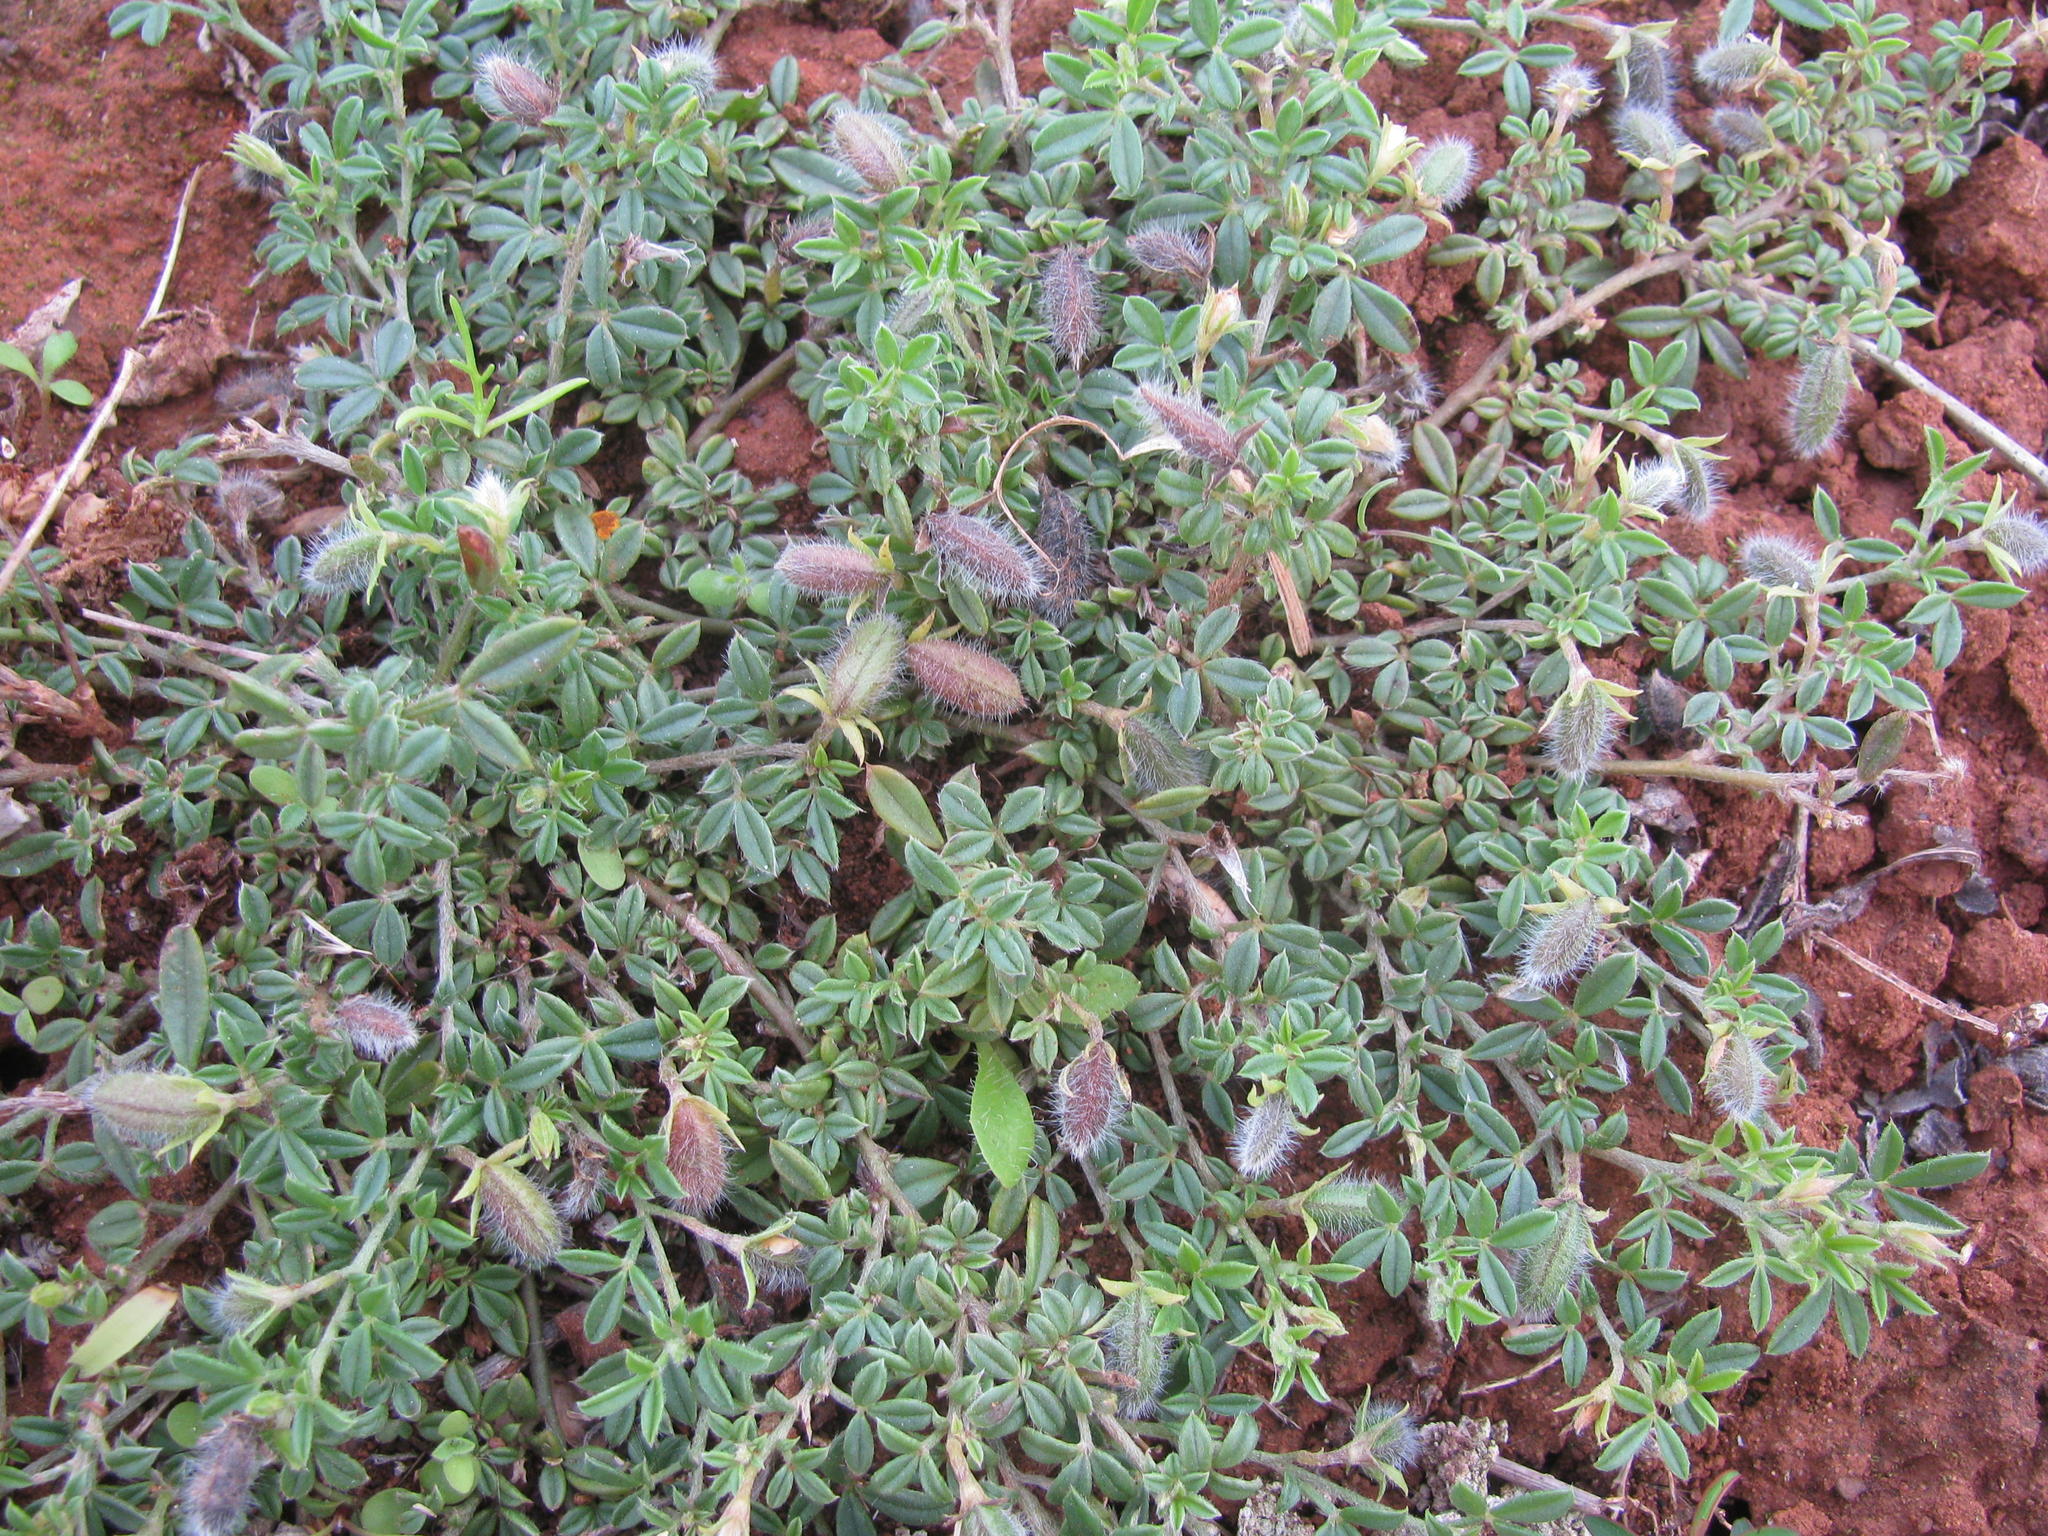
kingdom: Plantae
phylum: Tracheophyta
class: Magnoliopsida
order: Fabales
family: Fabaceae
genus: Lotononis
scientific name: Lotononis pungens
